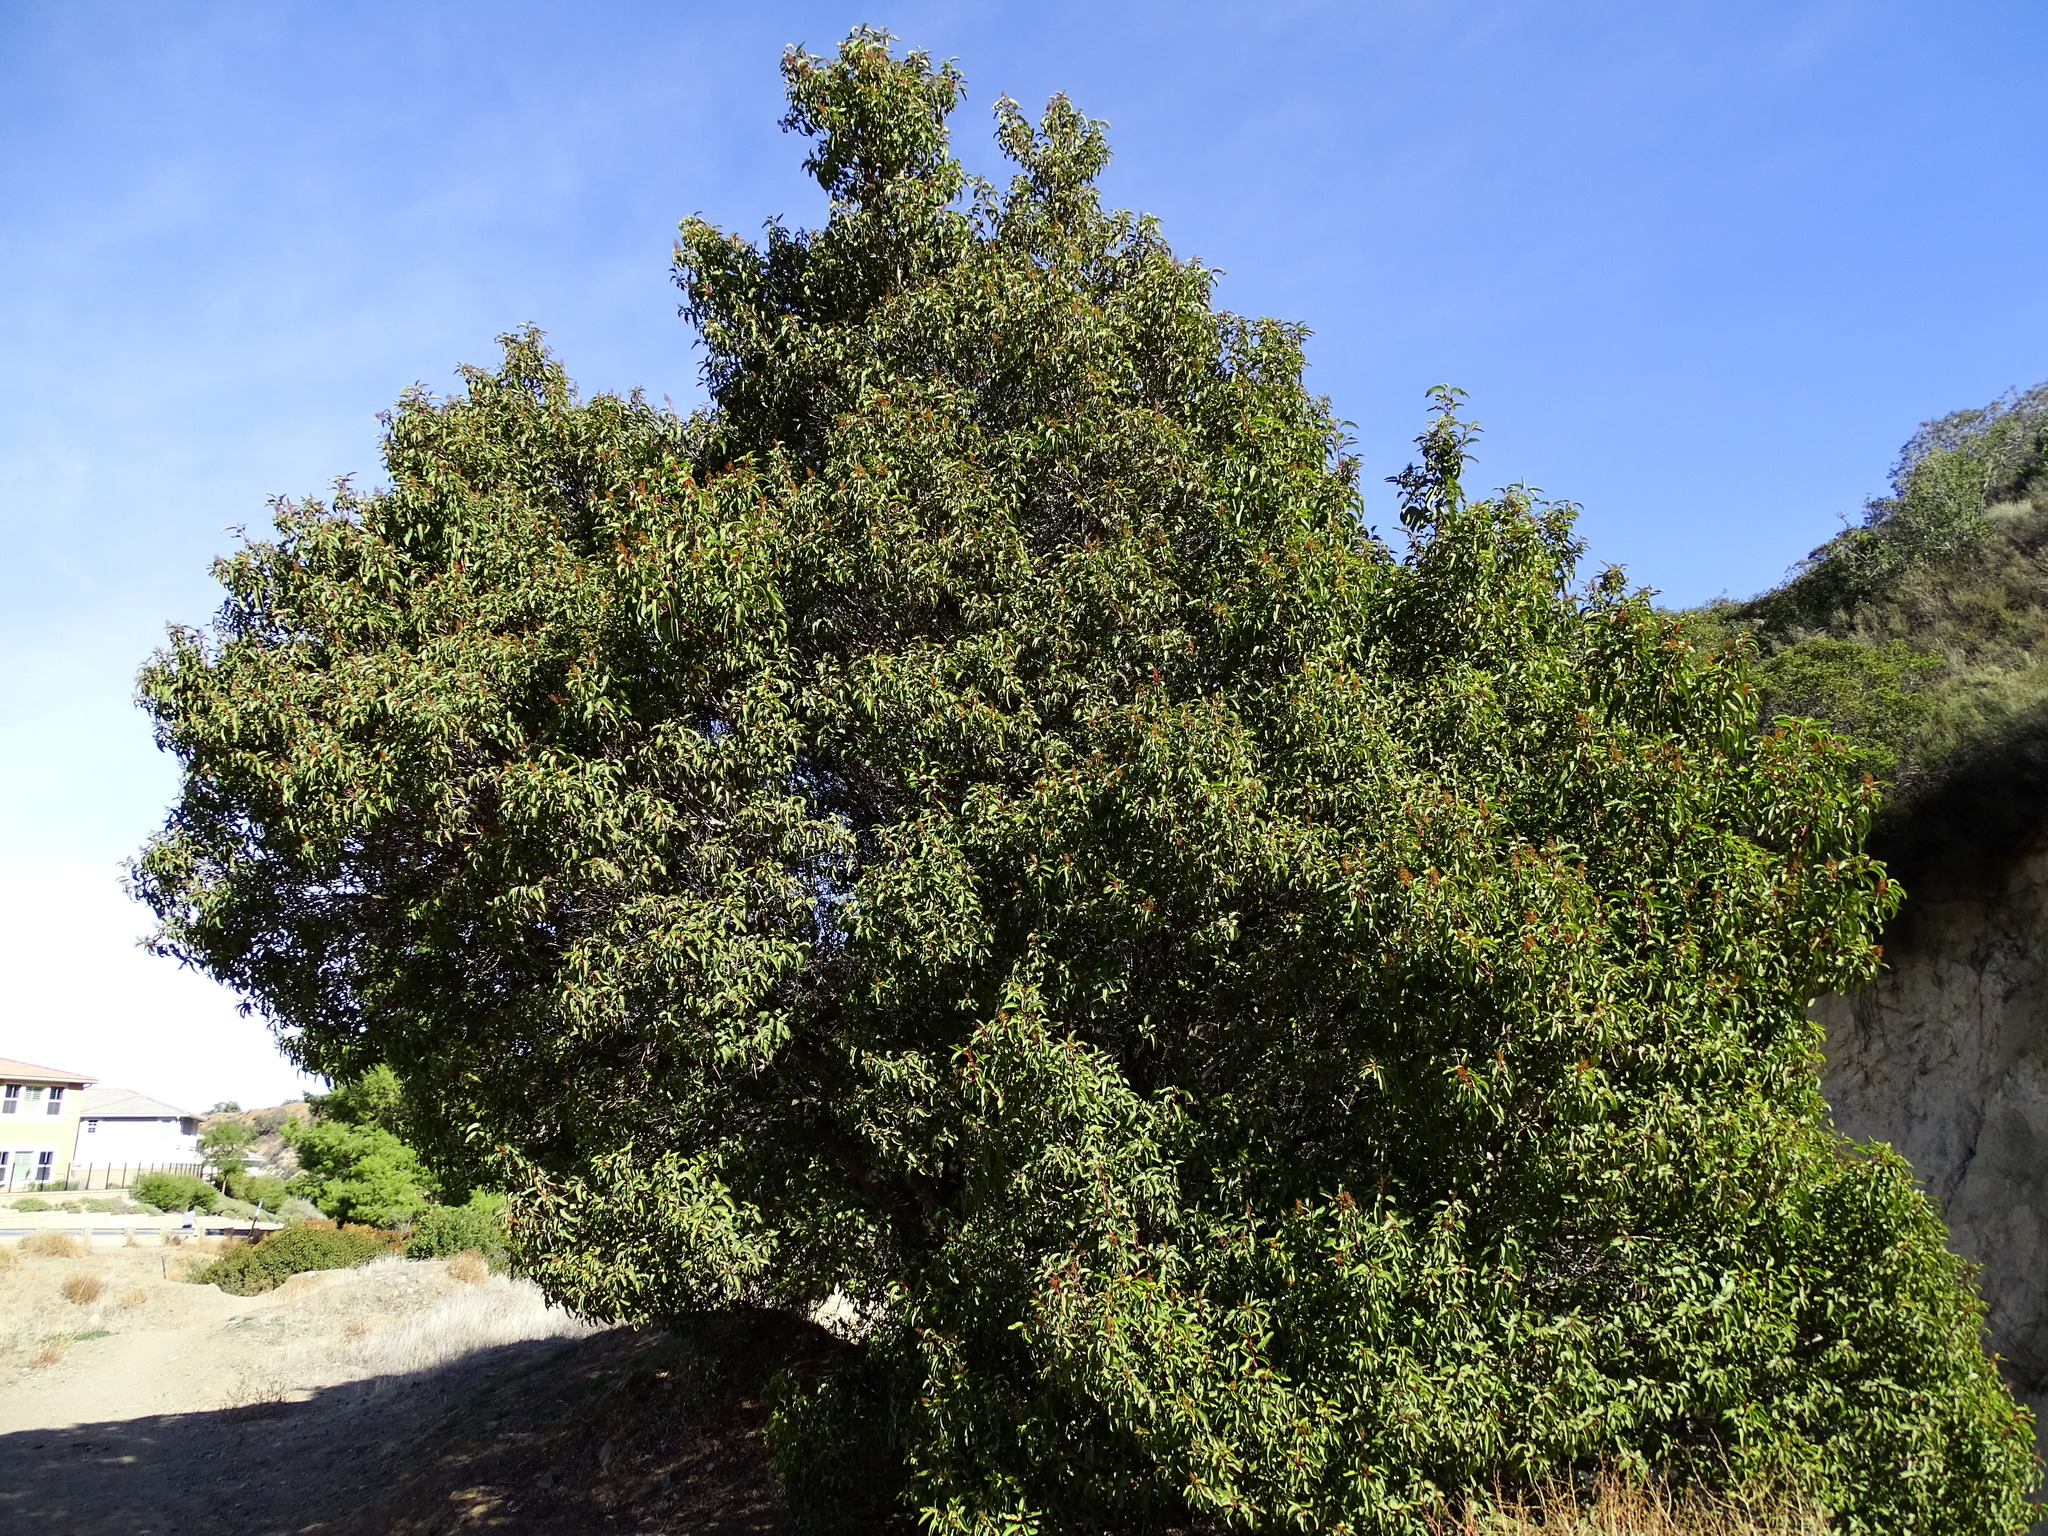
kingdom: Plantae
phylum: Tracheophyta
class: Magnoliopsida
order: Sapindales
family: Anacardiaceae
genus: Malosma
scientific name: Malosma laurina
